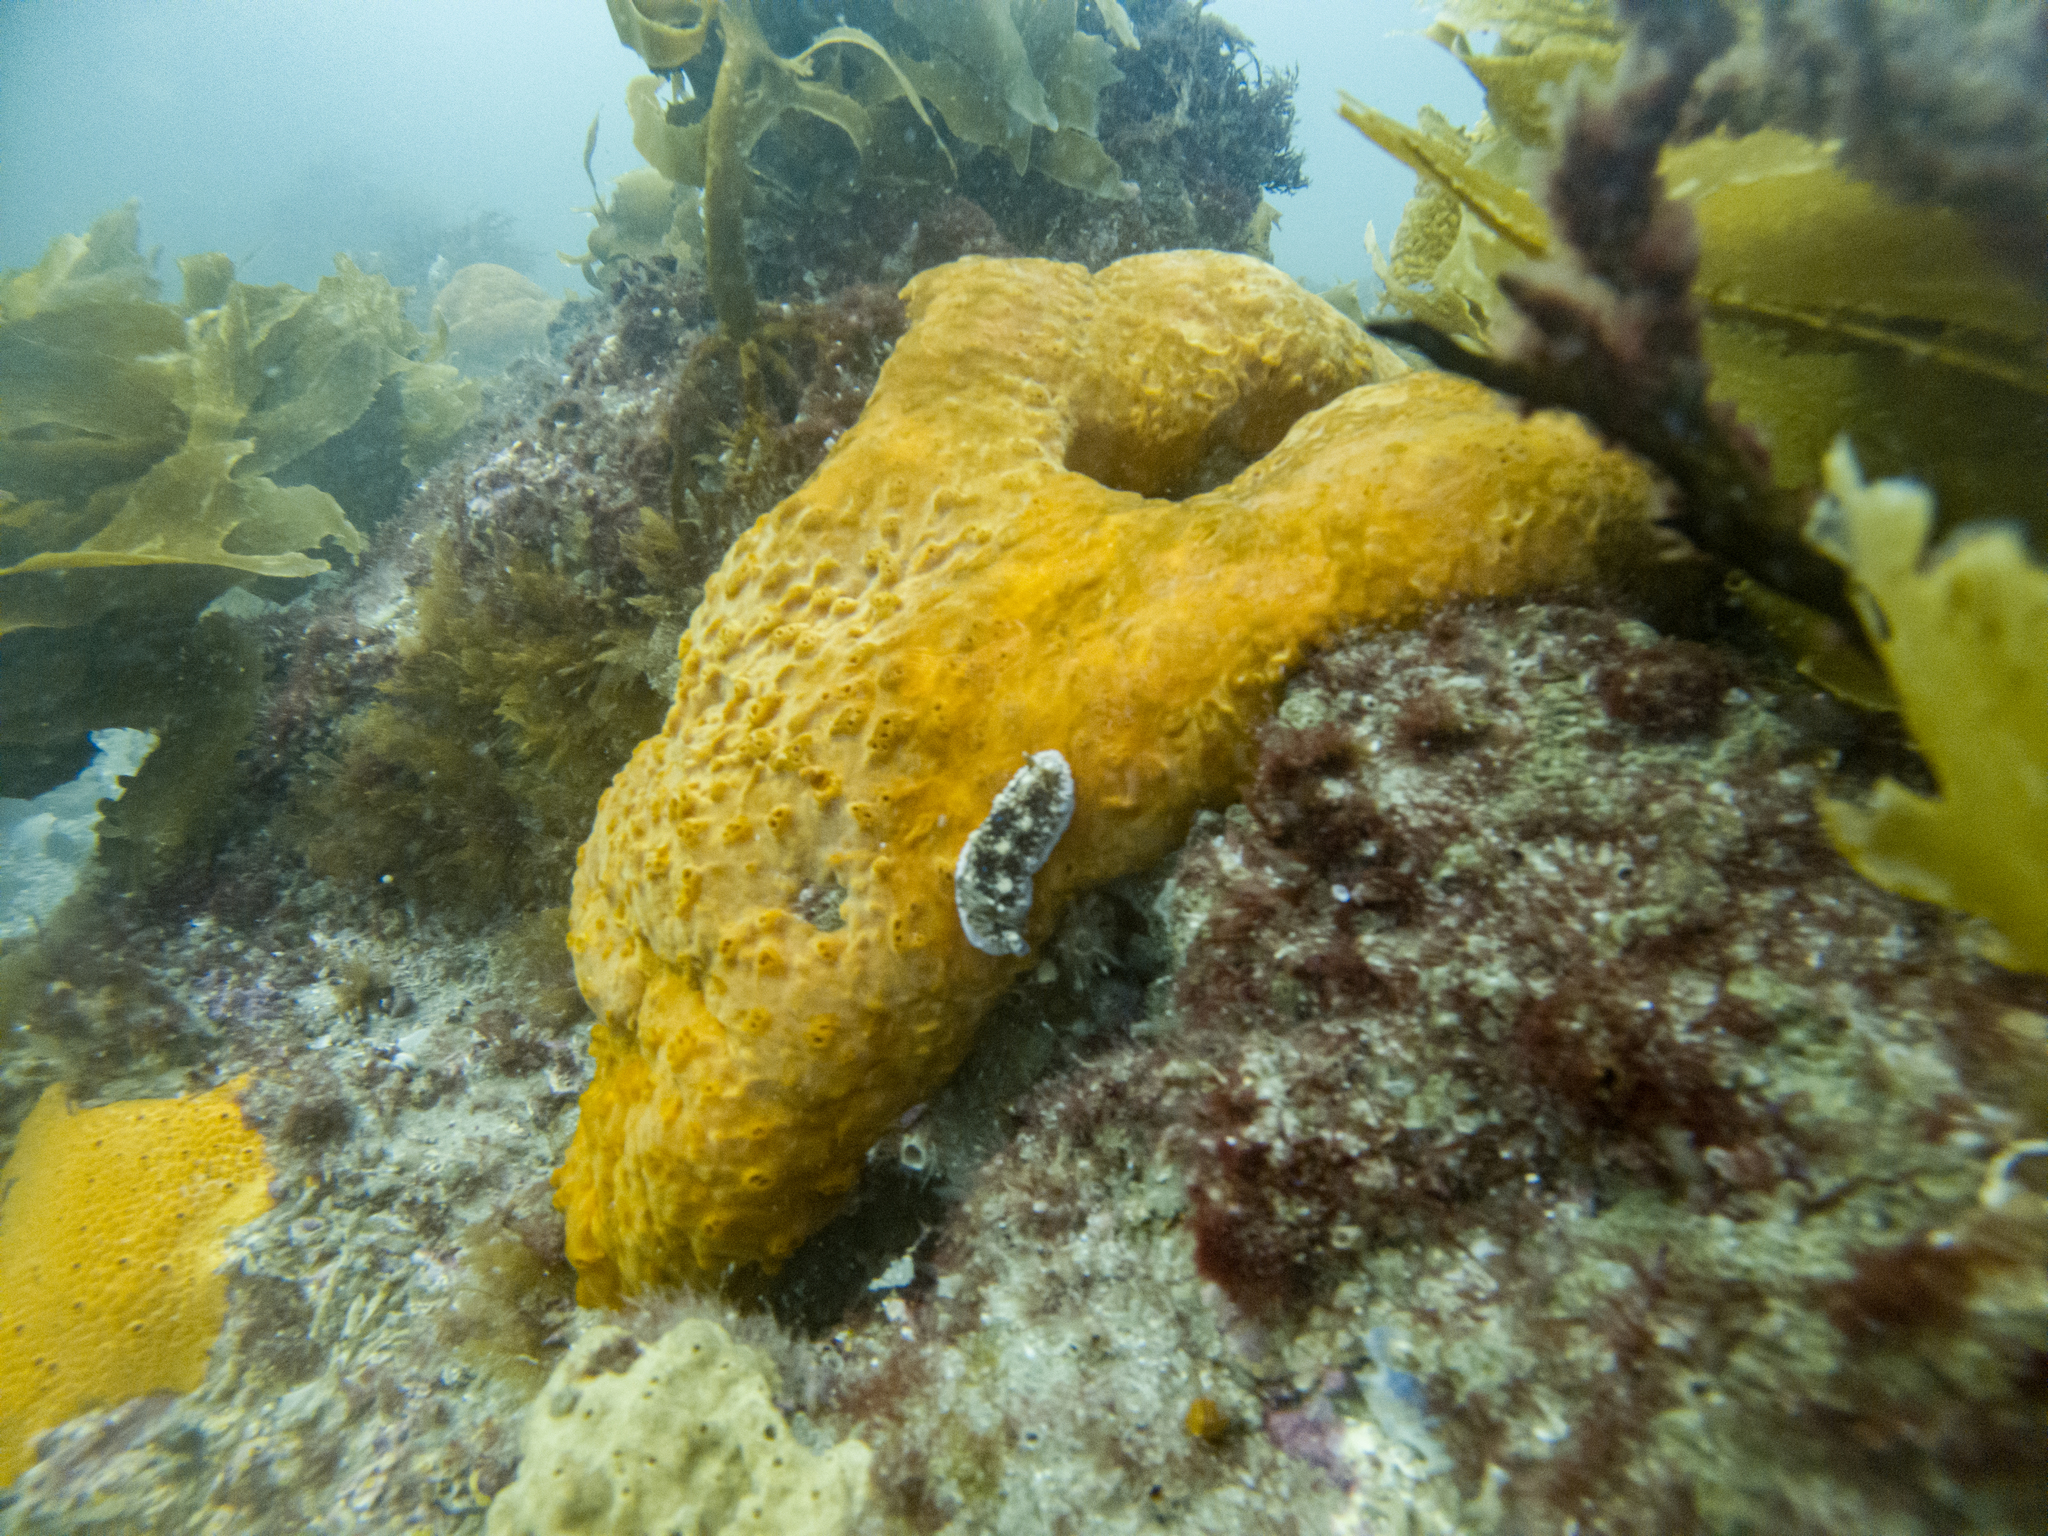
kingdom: Animalia
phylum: Mollusca
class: Gastropoda
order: Nudibranchia
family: Dendrodorididae
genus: Dendrodoris
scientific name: Dendrodoris krusensternii
